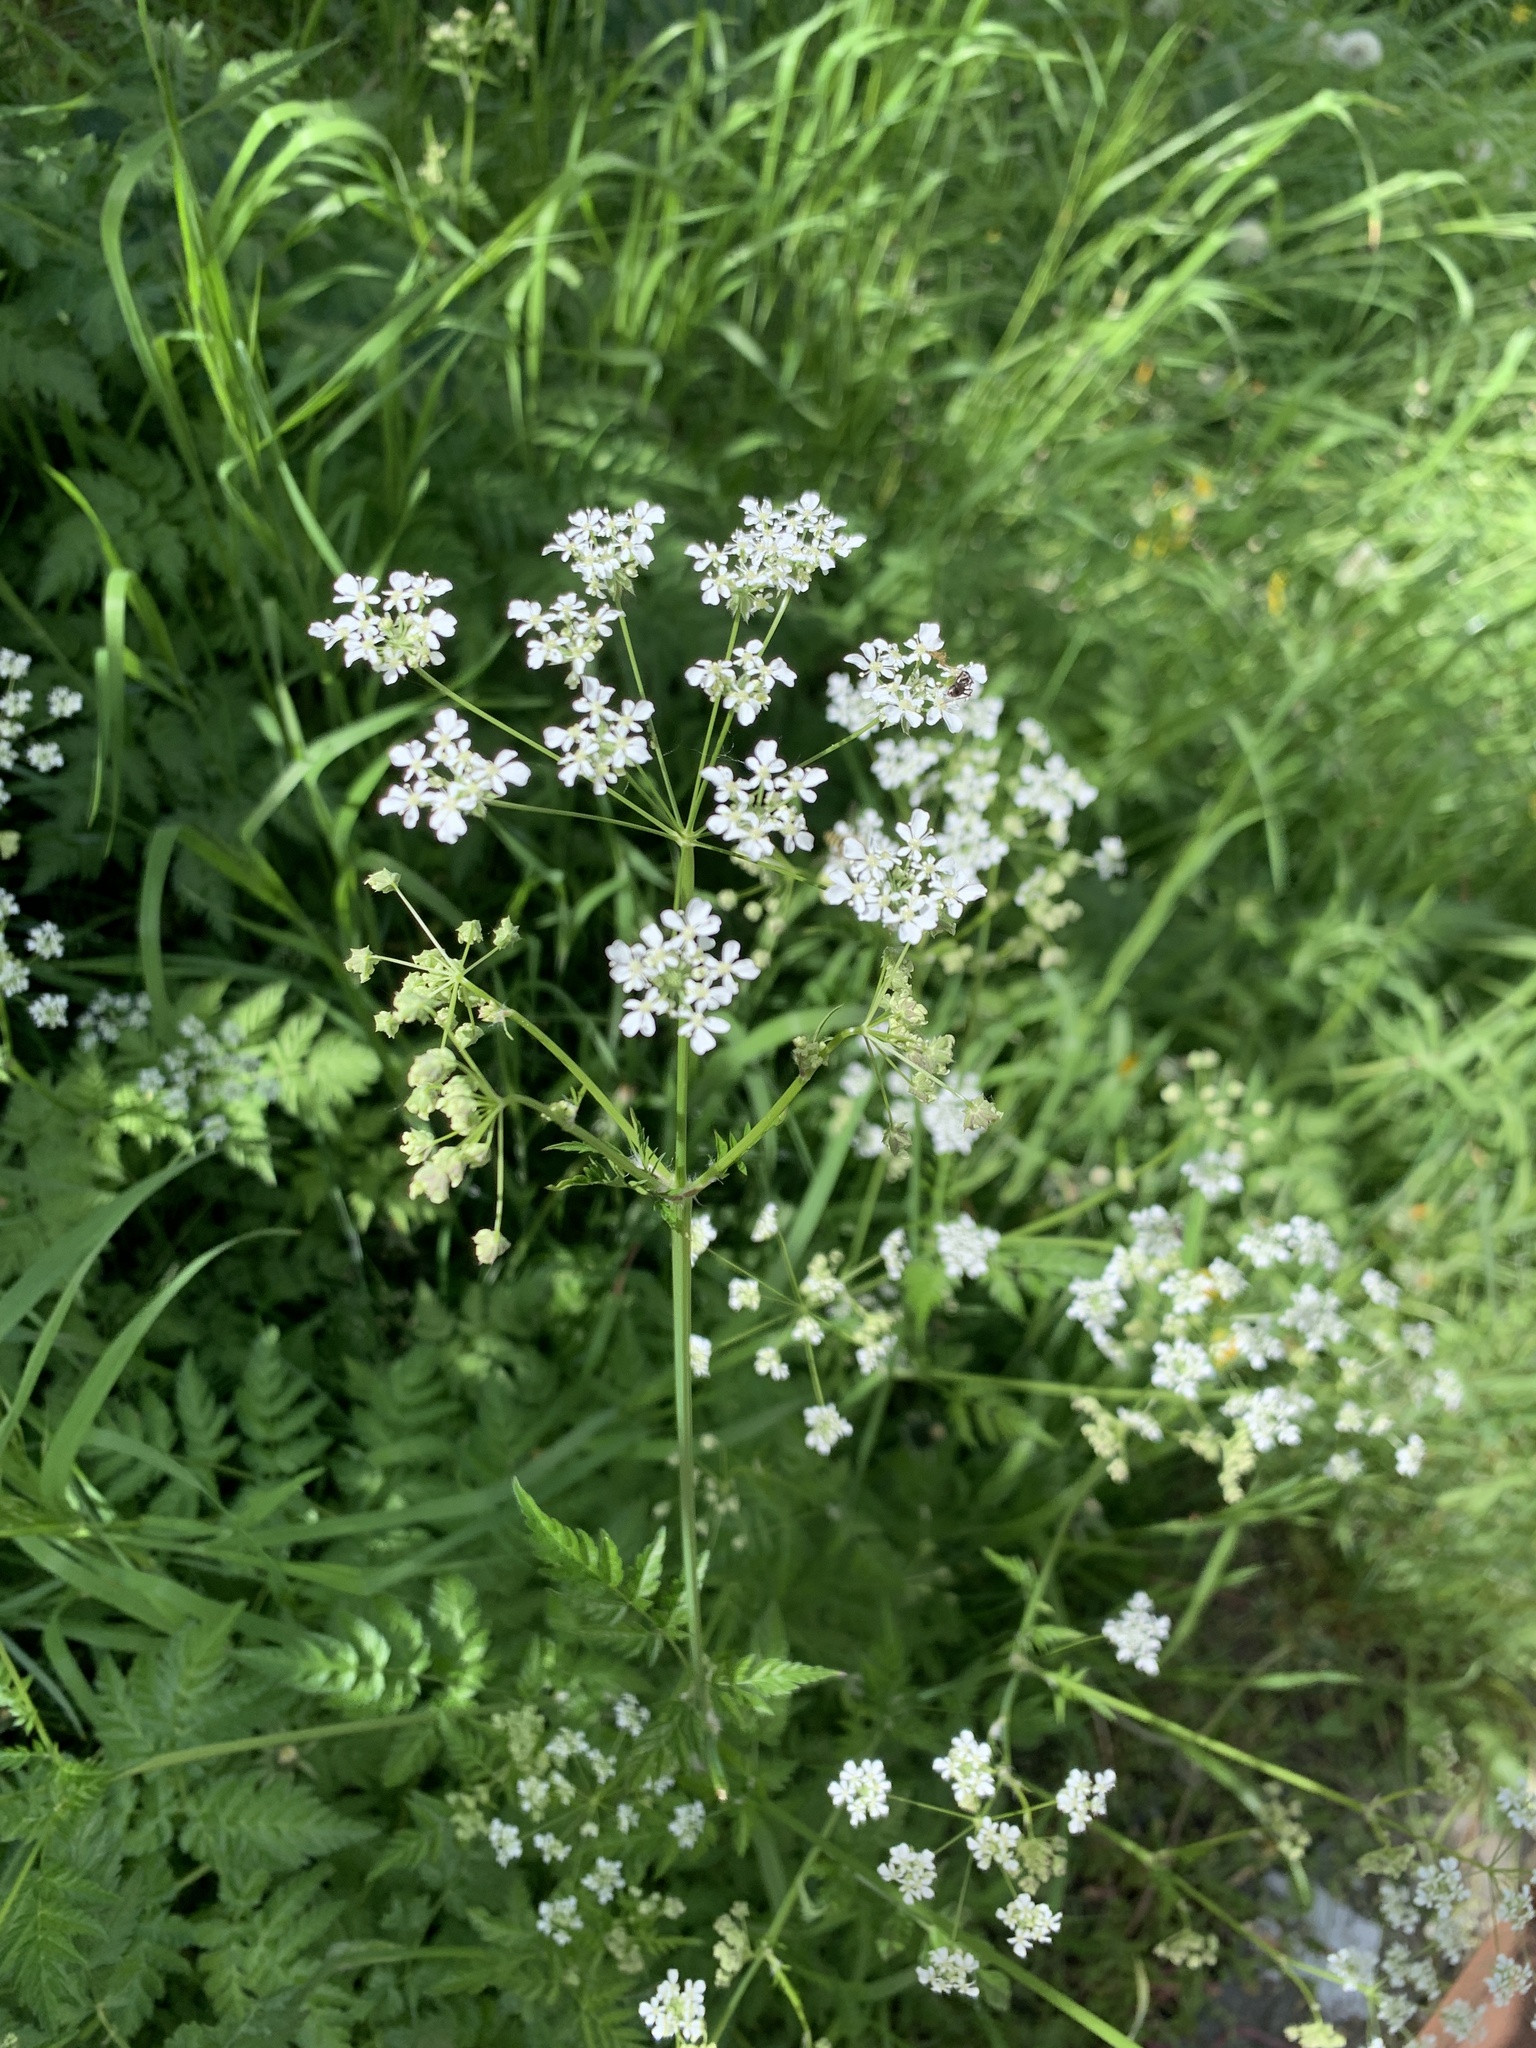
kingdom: Plantae
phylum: Tracheophyta
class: Magnoliopsida
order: Apiales
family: Apiaceae
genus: Anthriscus
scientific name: Anthriscus sylvestris
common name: Cow parsley
